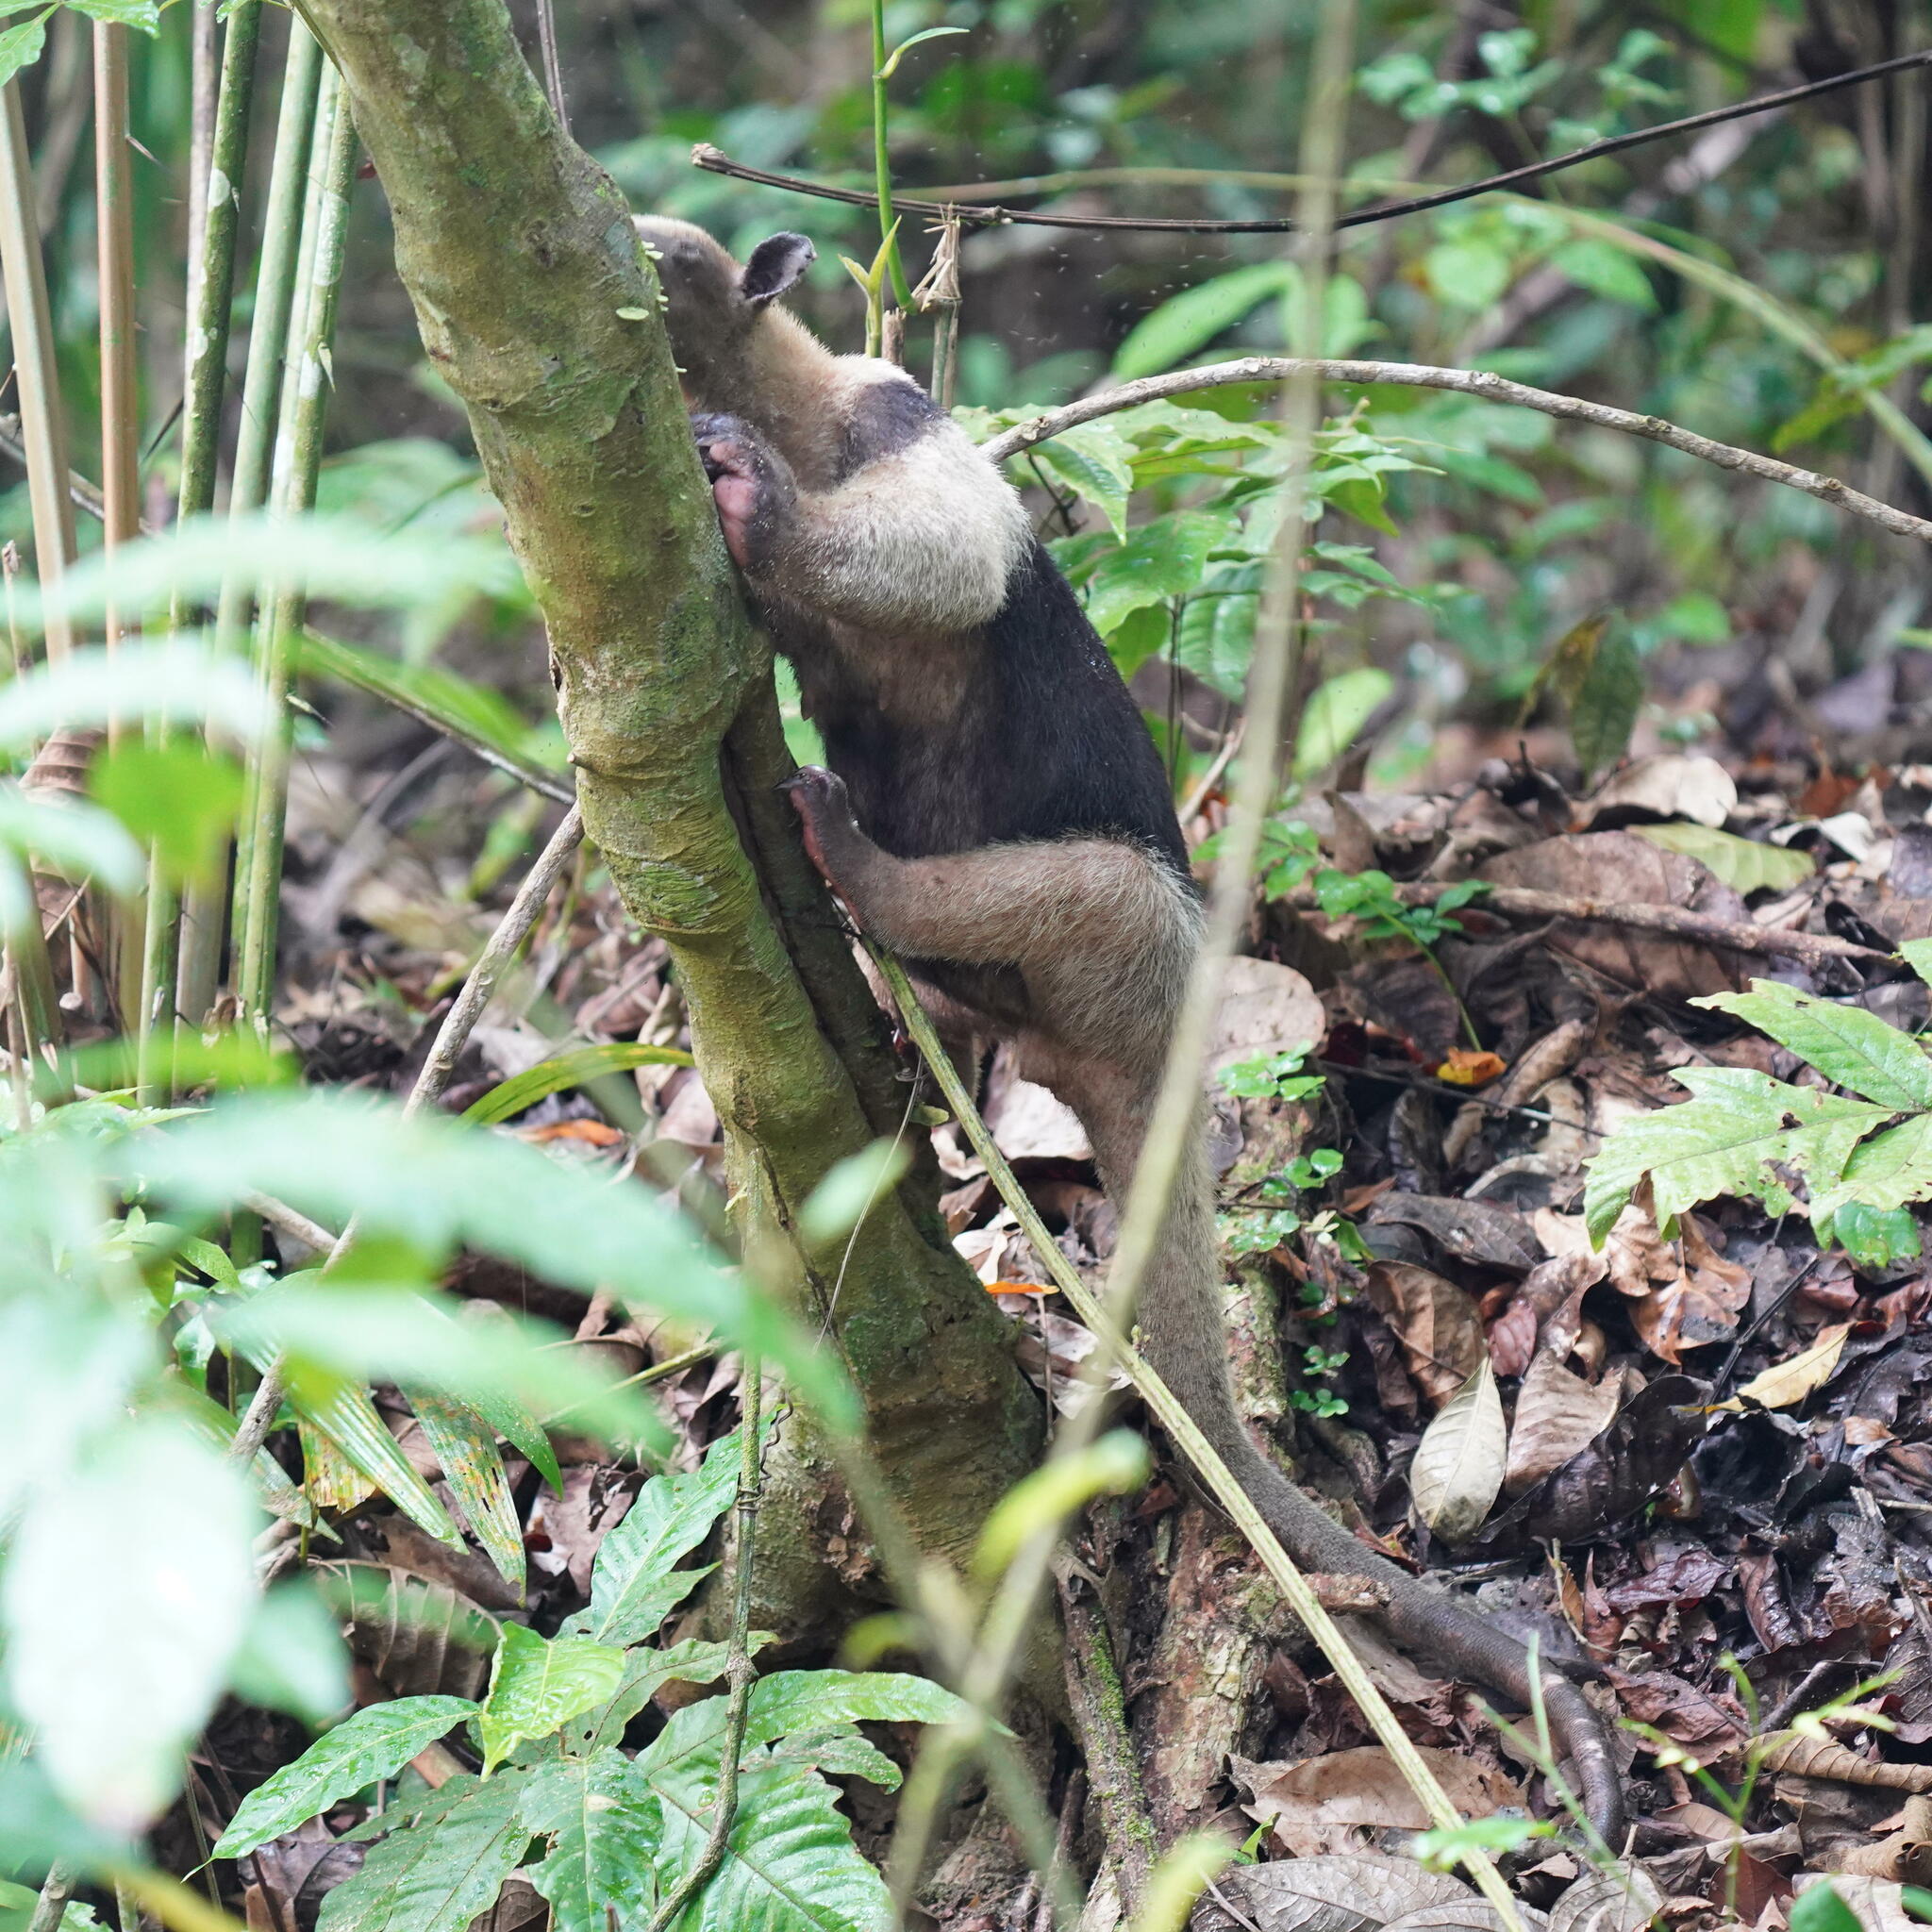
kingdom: Animalia
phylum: Chordata
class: Mammalia
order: Pilosa
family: Myrmecophagidae
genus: Tamandua
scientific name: Tamandua mexicana
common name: Northern tamandua
